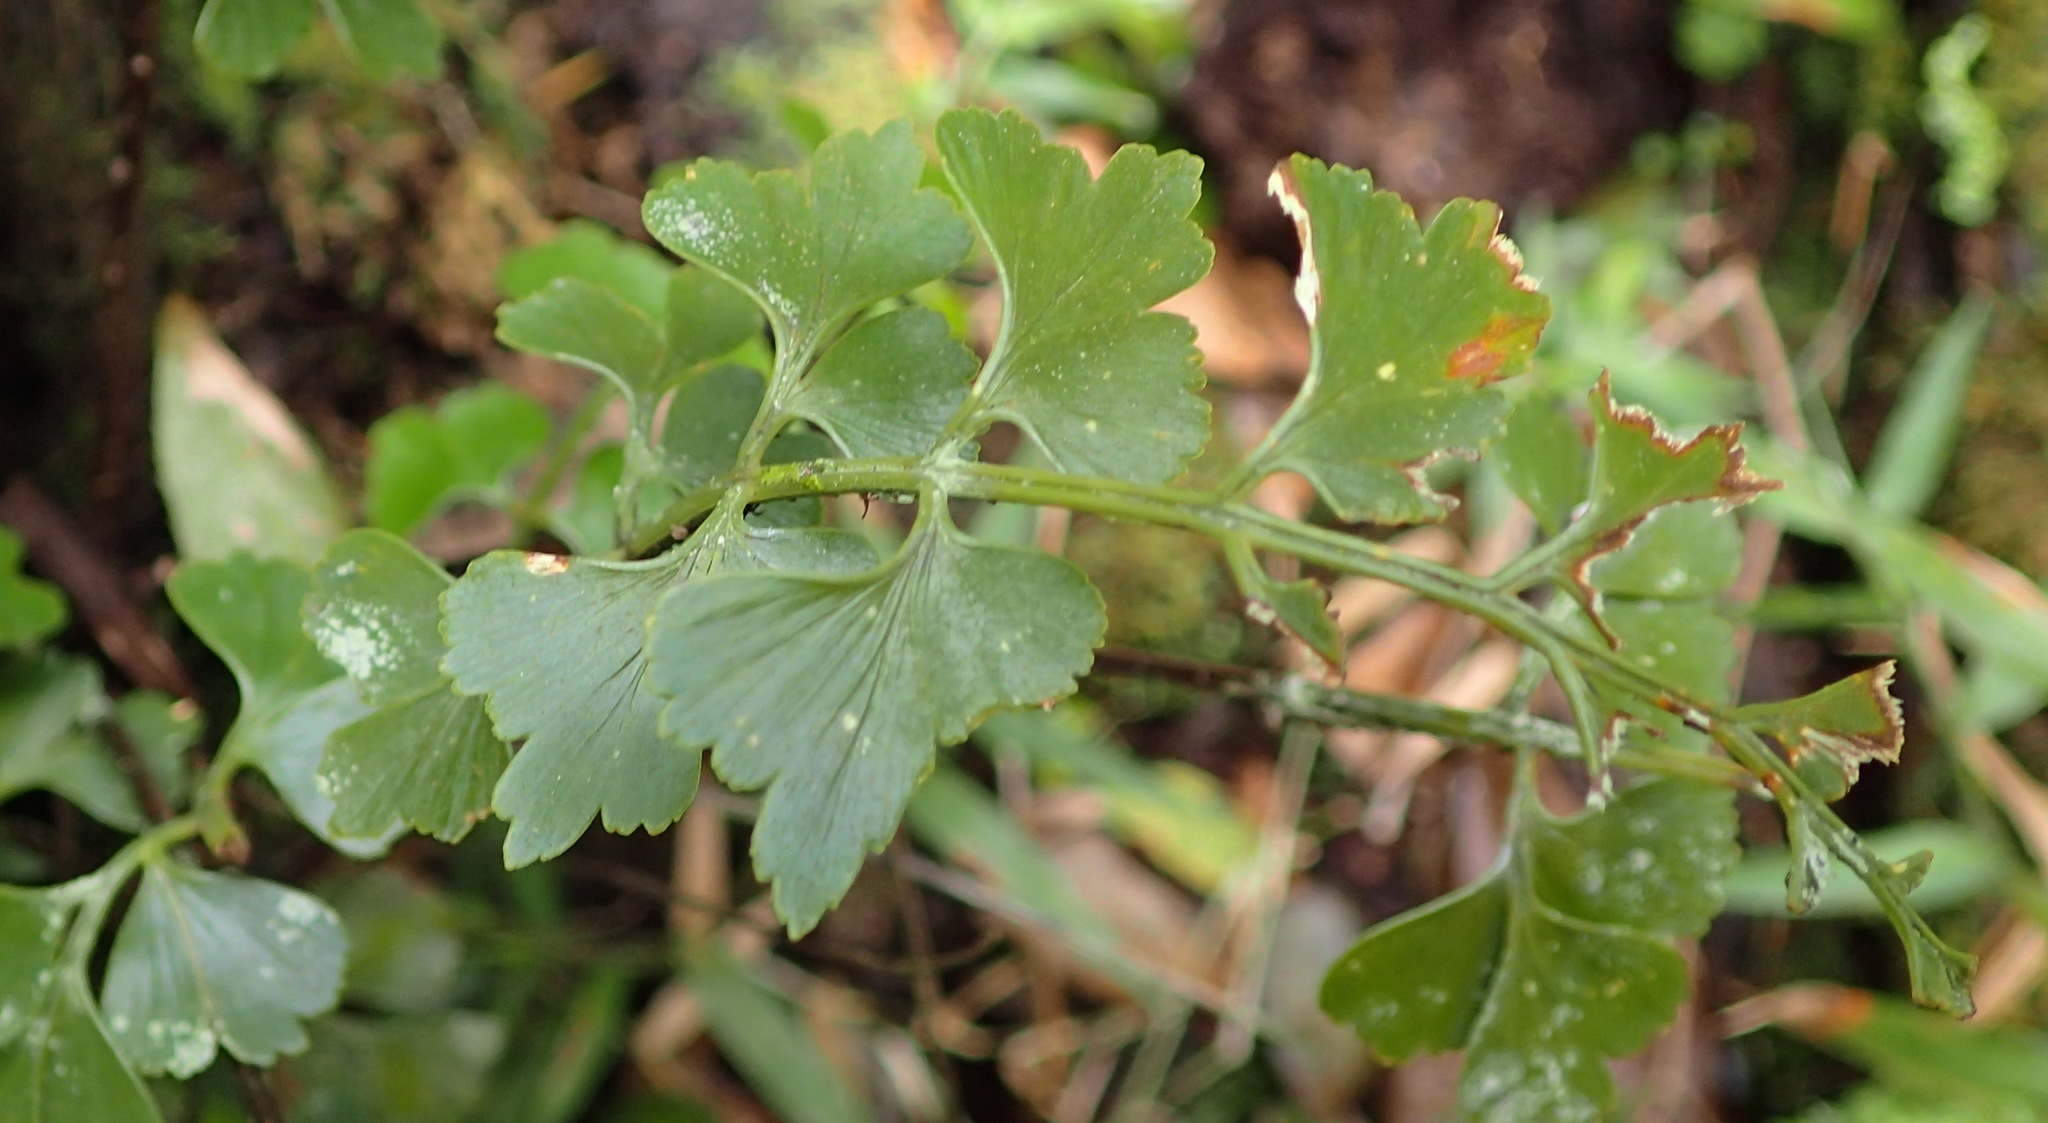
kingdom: Plantae
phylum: Tracheophyta
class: Polypodiopsida
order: Polypodiales
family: Aspleniaceae
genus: Asplenium
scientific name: Asplenium simii
